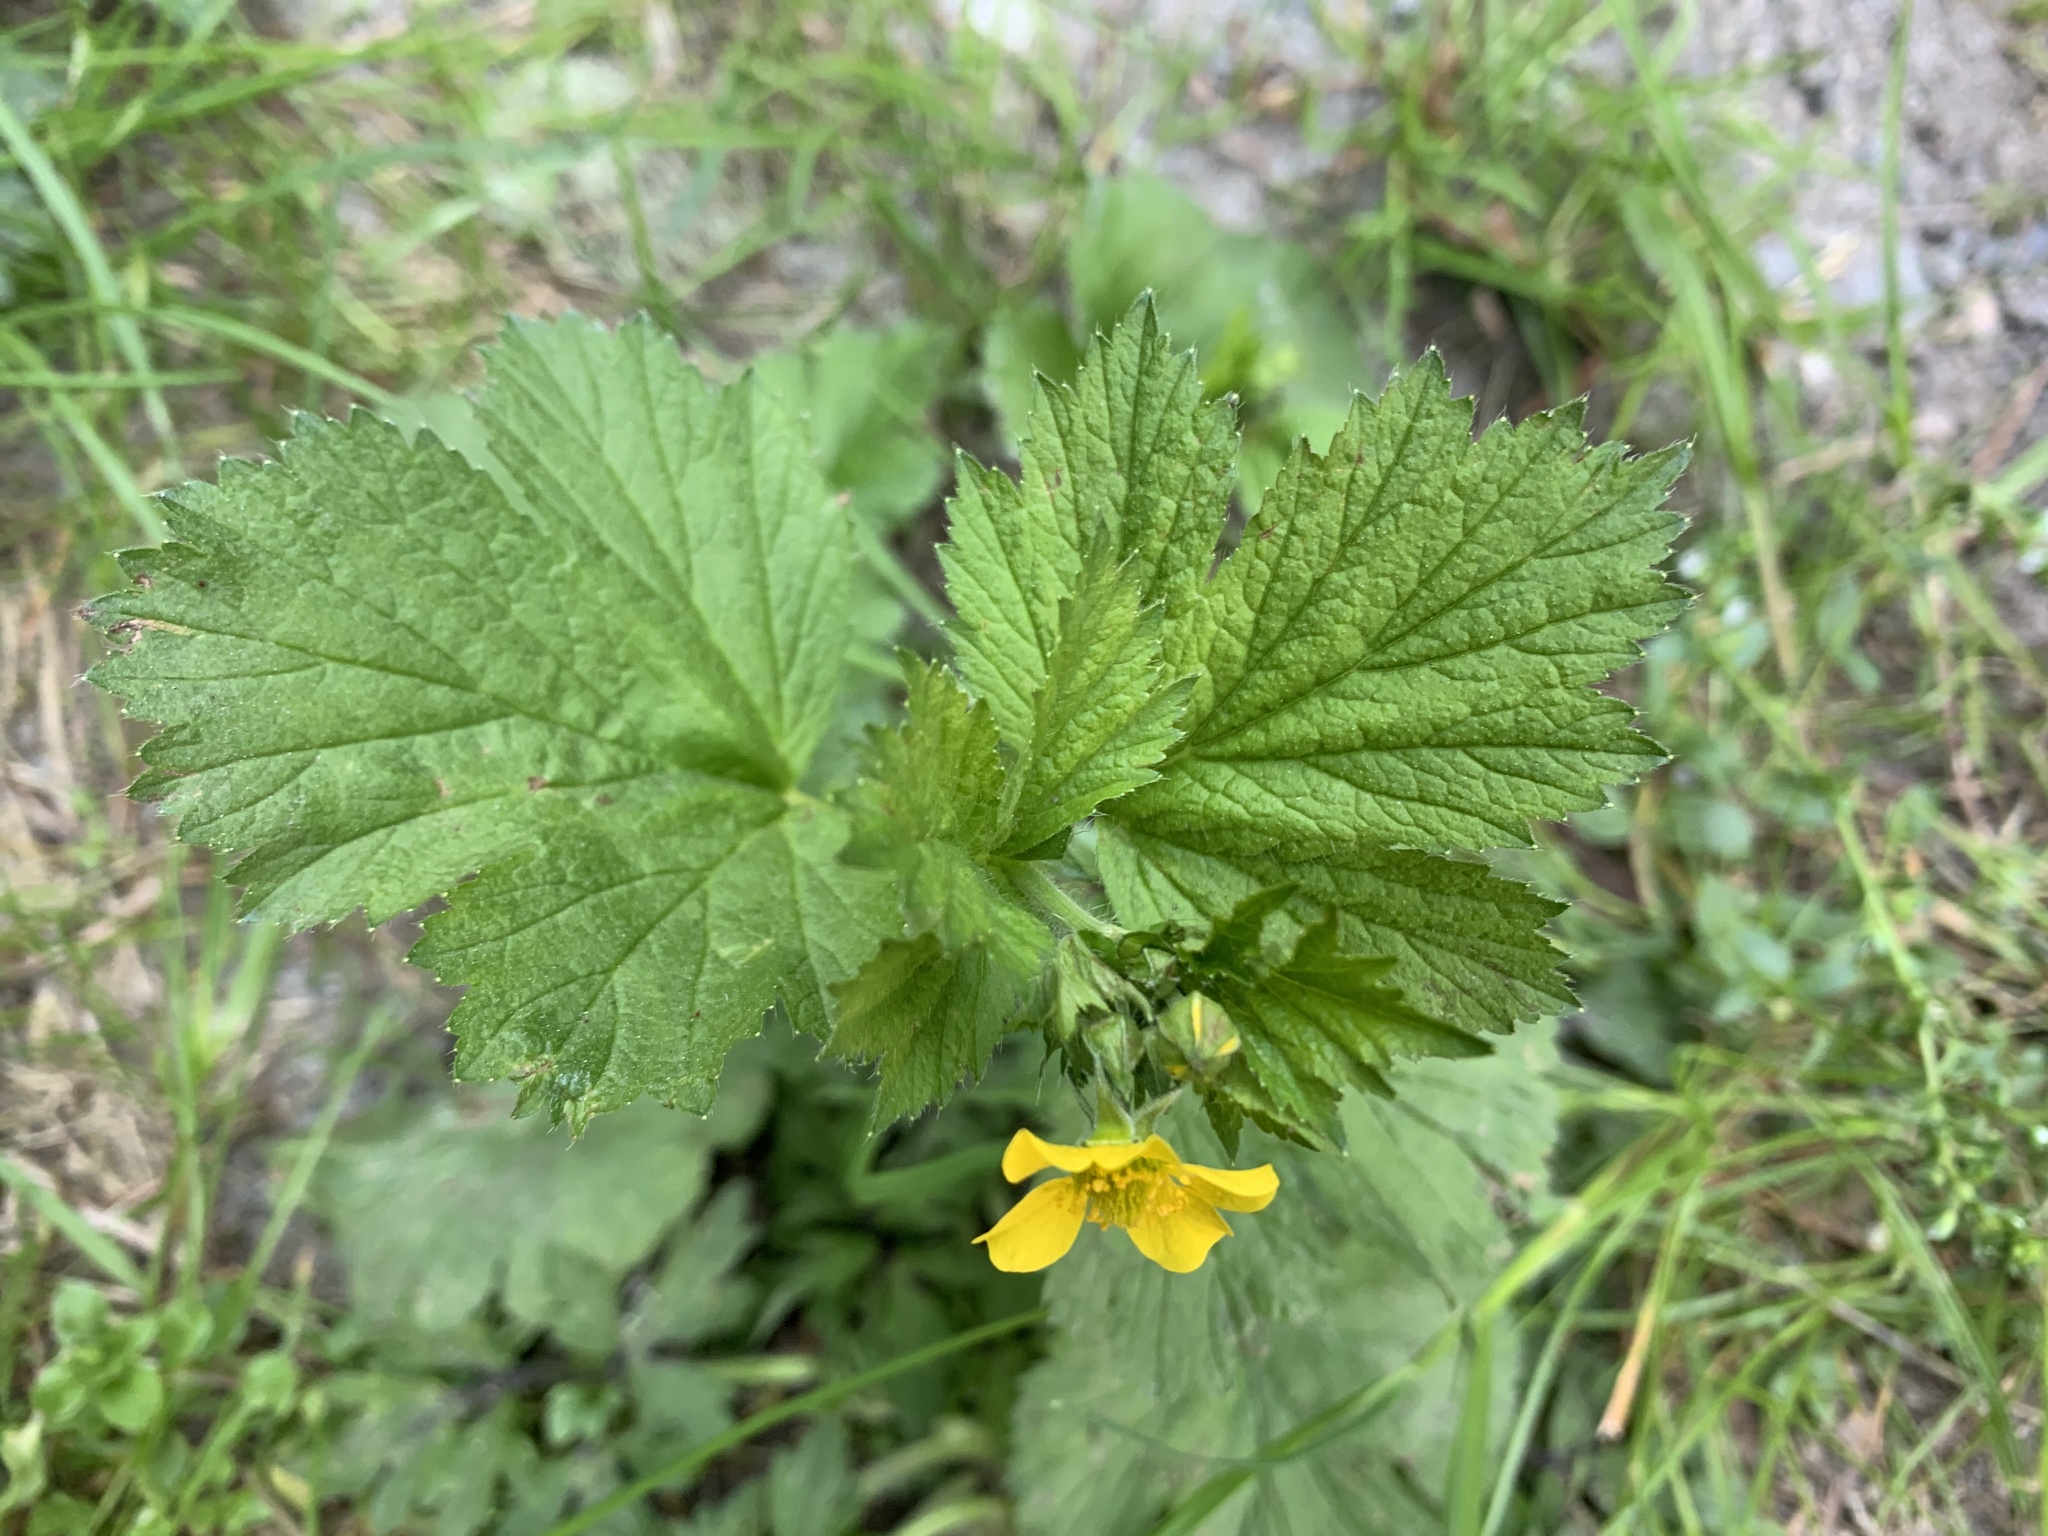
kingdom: Plantae
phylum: Tracheophyta
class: Magnoliopsida
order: Rosales
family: Rosaceae
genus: Geum
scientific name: Geum macrophyllum
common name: Large-leaved avens
